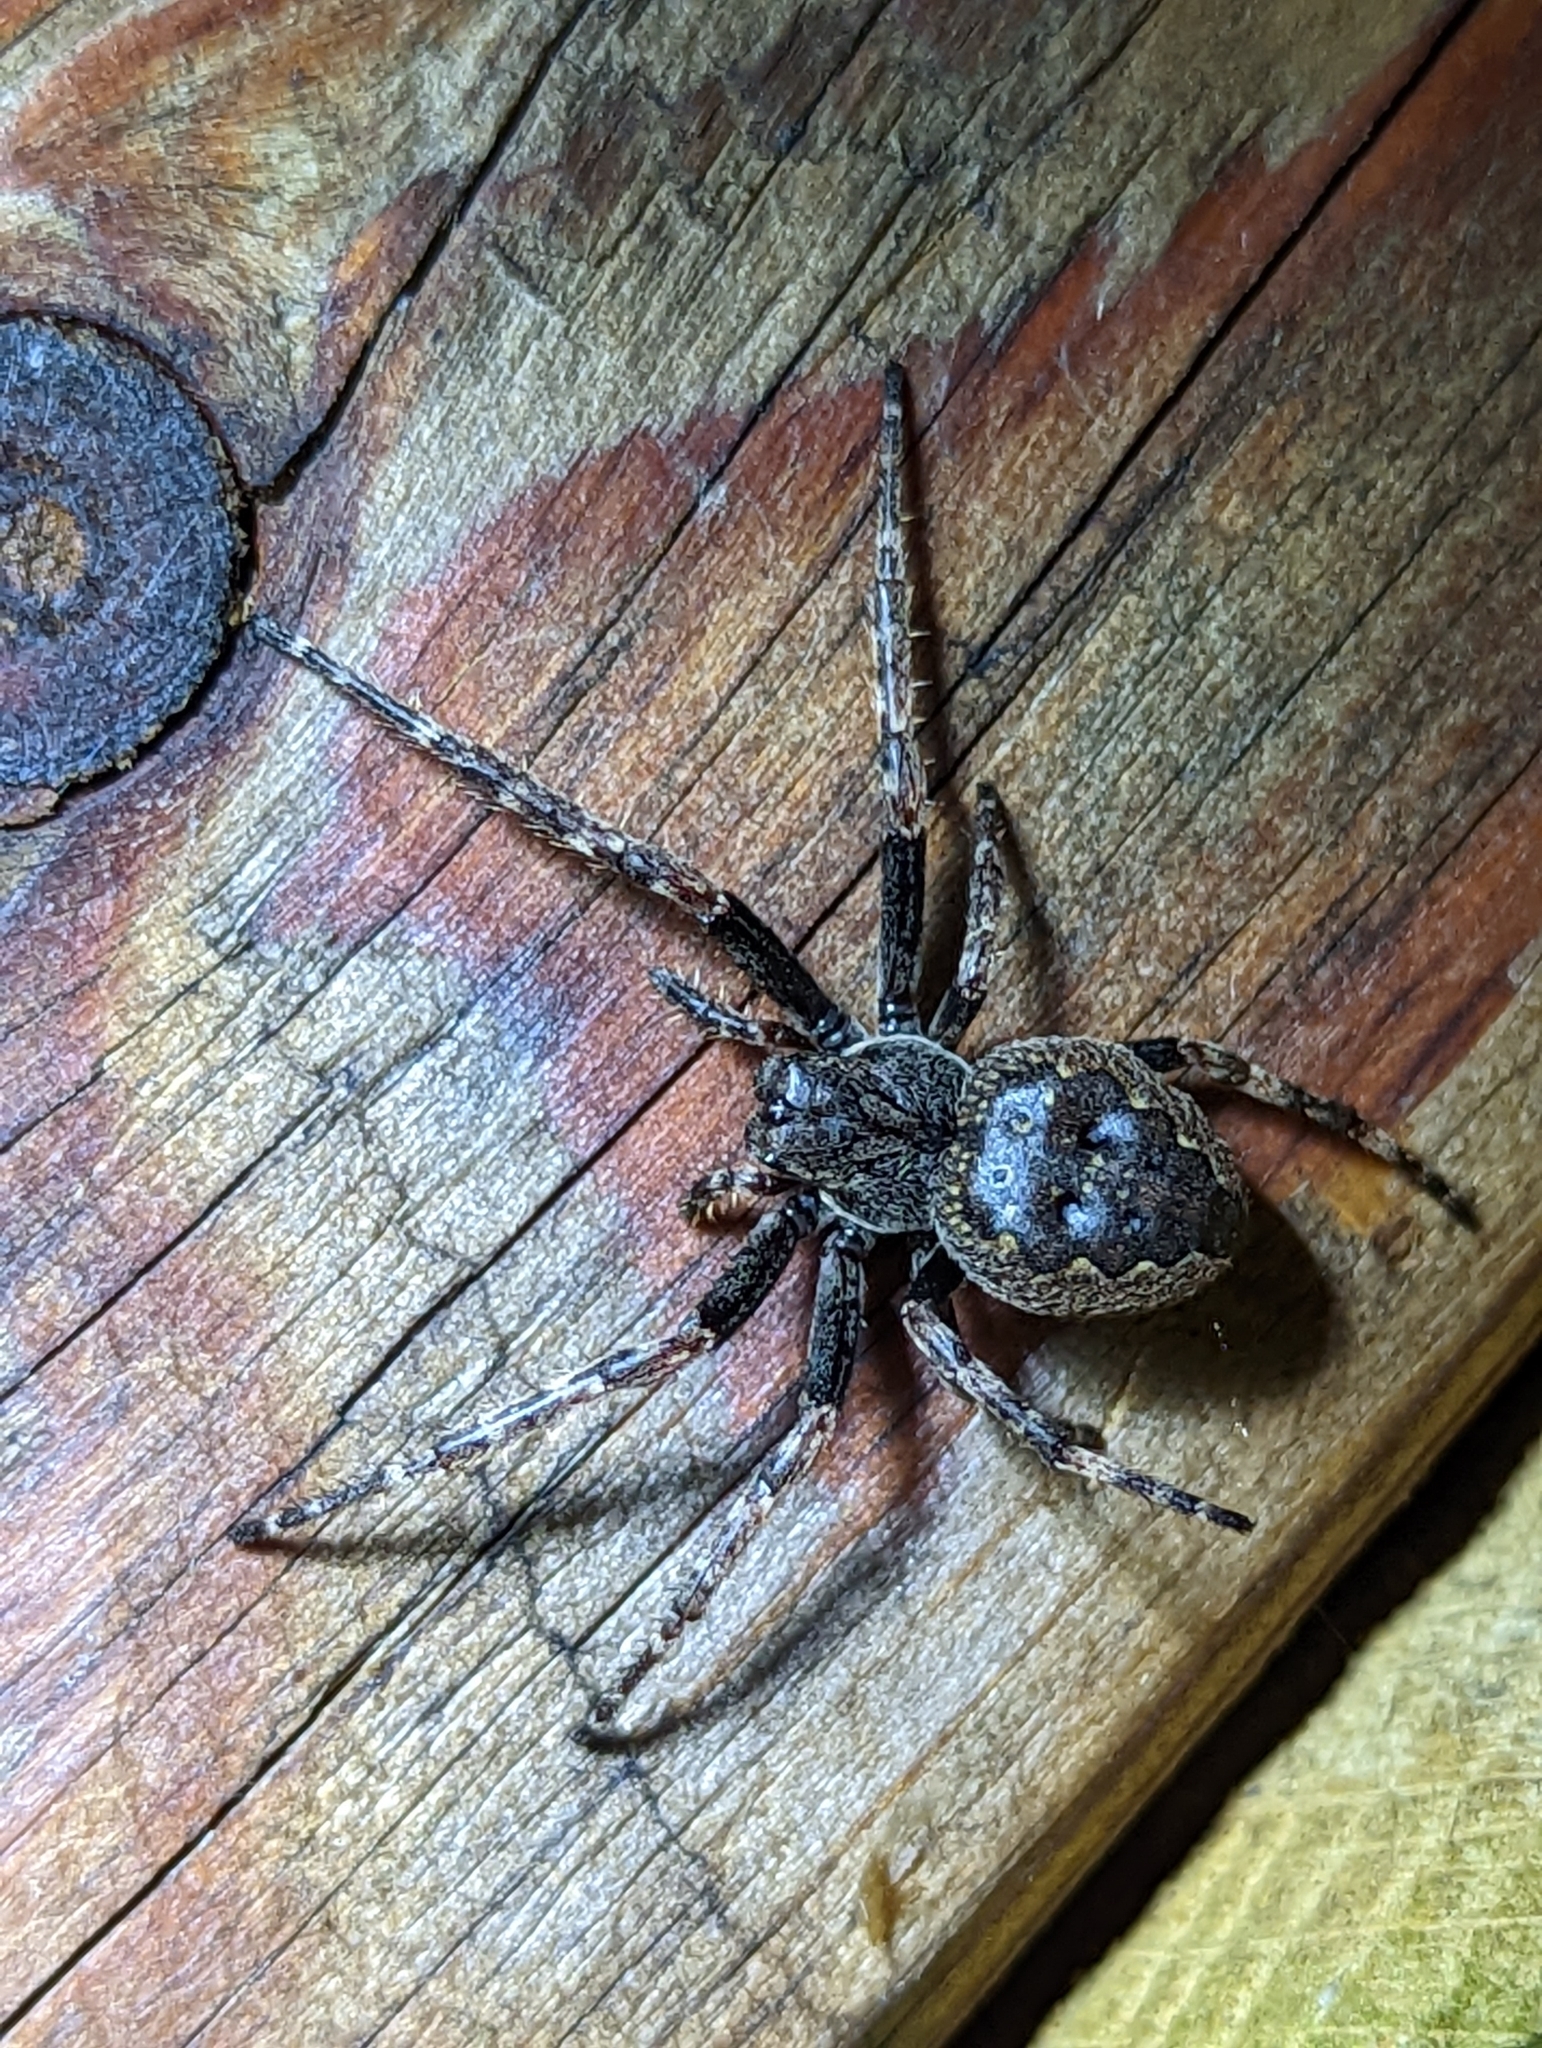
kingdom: Animalia
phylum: Arthropoda
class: Arachnida
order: Araneae
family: Araneidae
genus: Nuctenea
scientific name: Nuctenea umbratica
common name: Toad spider
